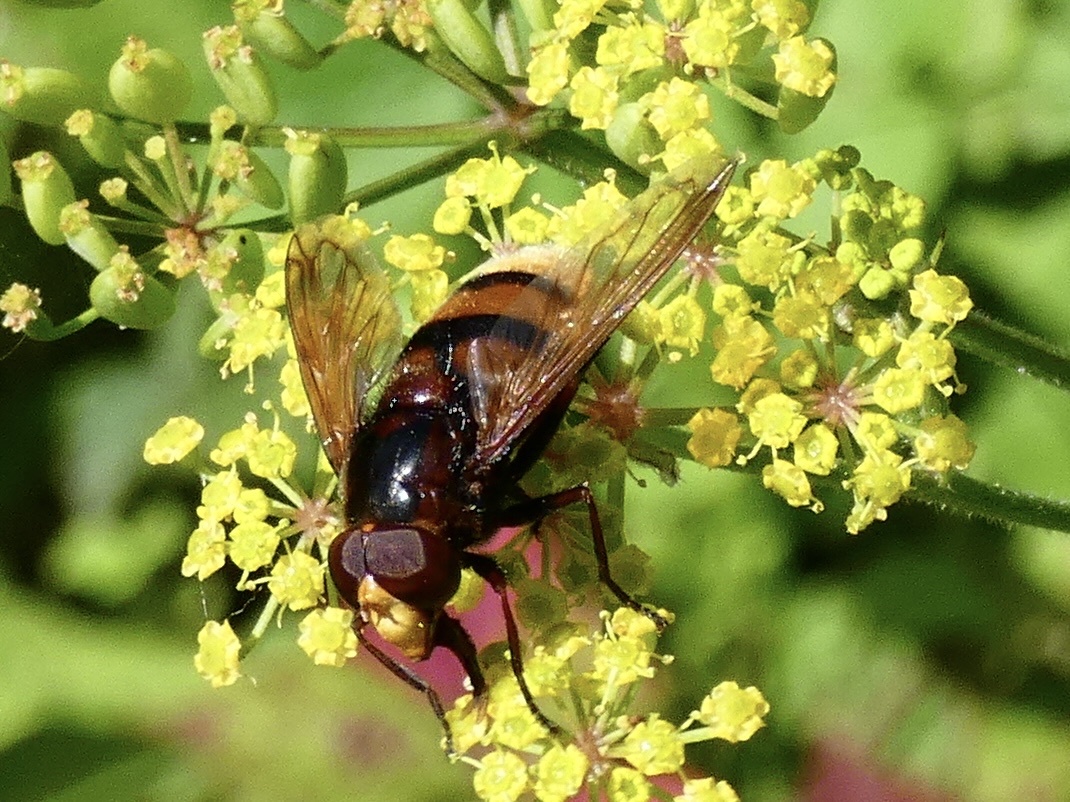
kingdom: Animalia
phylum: Arthropoda
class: Insecta
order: Diptera
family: Syrphidae
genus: Volucella
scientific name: Volucella zonaria
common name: Hornet hoverfly
